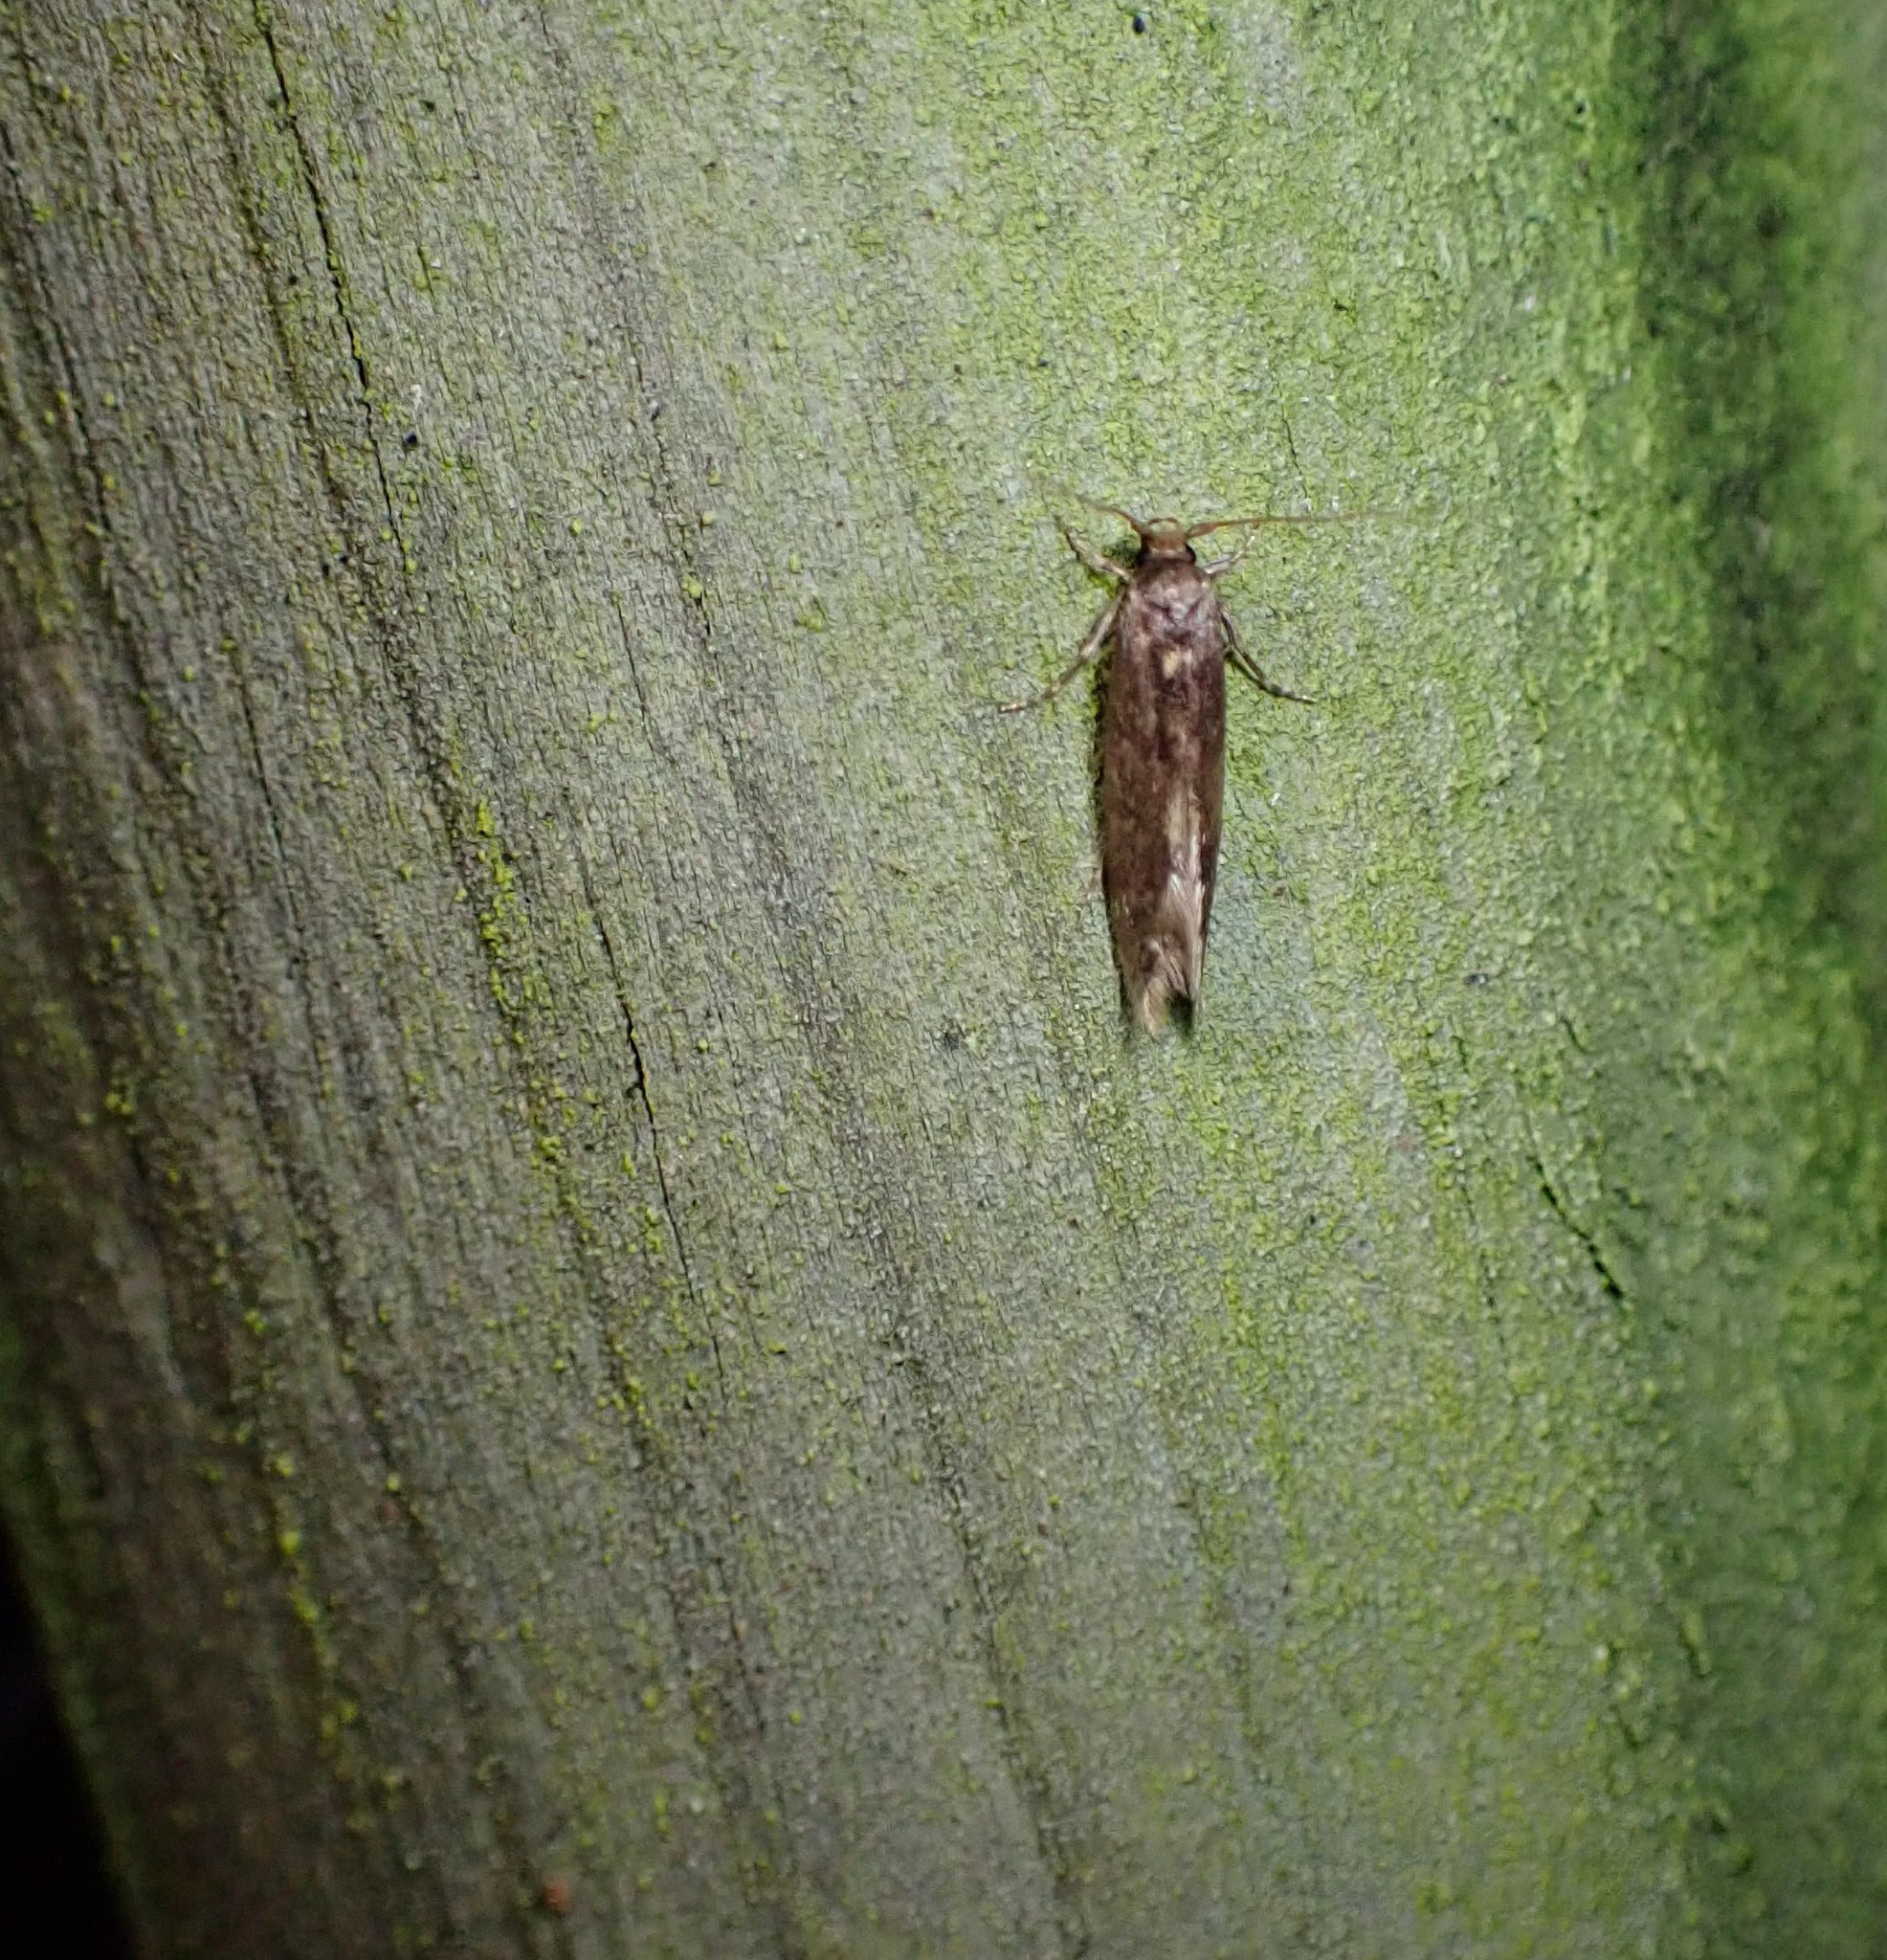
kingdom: Animalia
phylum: Arthropoda
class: Insecta
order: Lepidoptera
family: Tineidae
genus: Opogona
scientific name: Opogona omoscopa
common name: Moth
